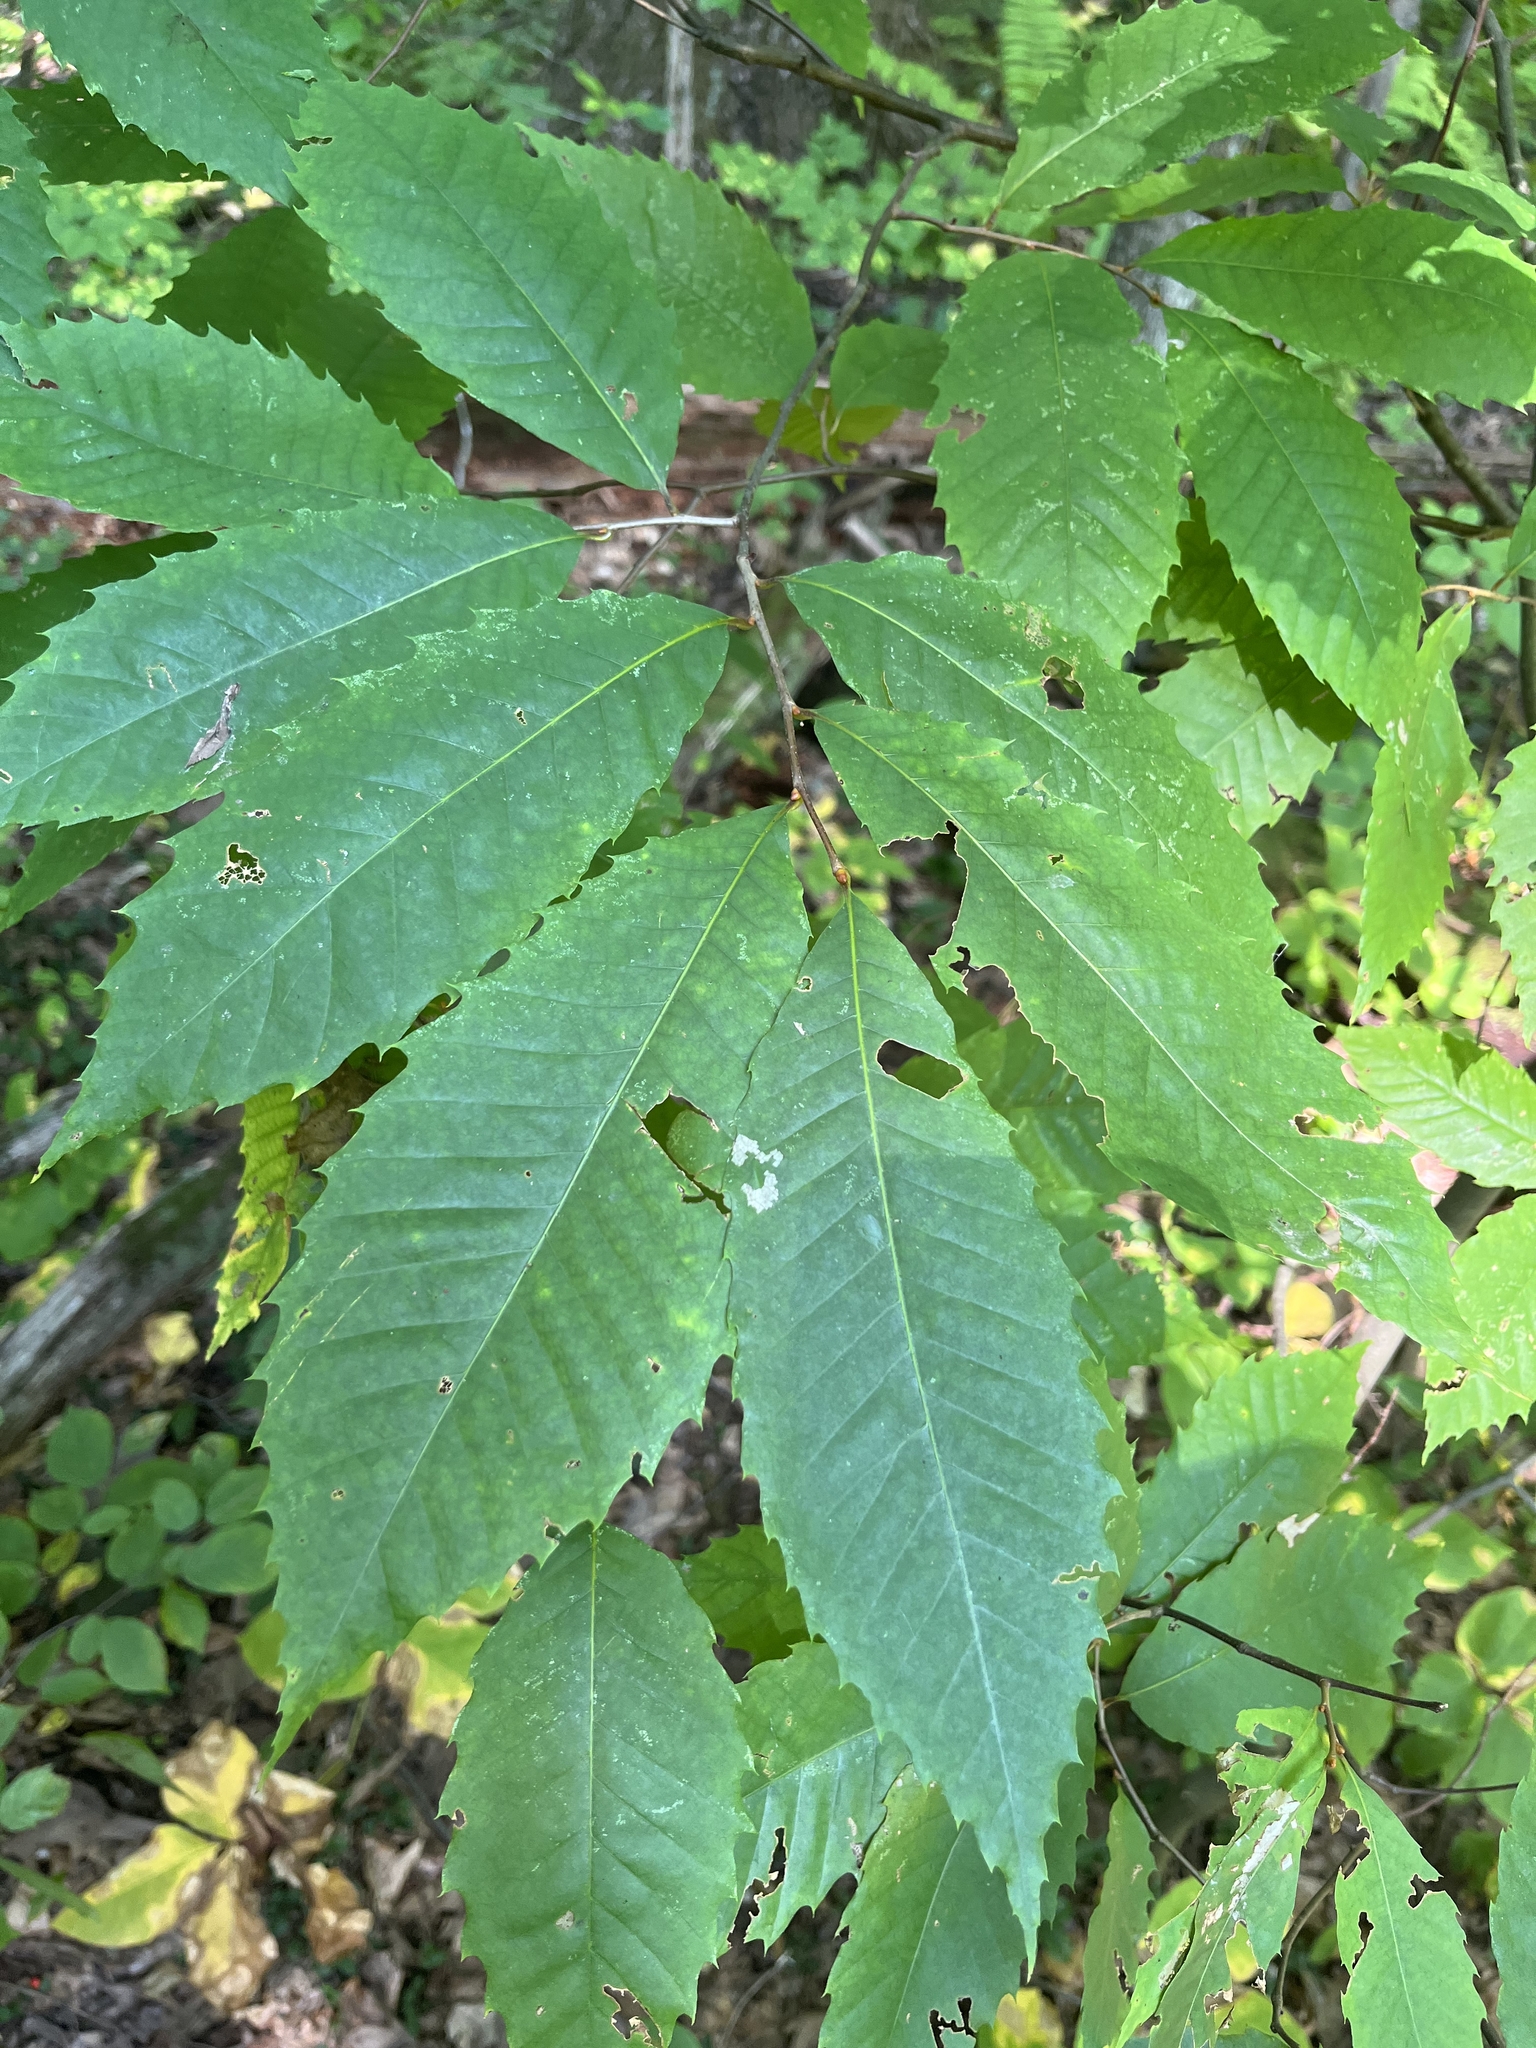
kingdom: Plantae
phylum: Tracheophyta
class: Magnoliopsida
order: Fagales
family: Fagaceae
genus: Castanea
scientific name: Castanea dentata
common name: American chestnut
